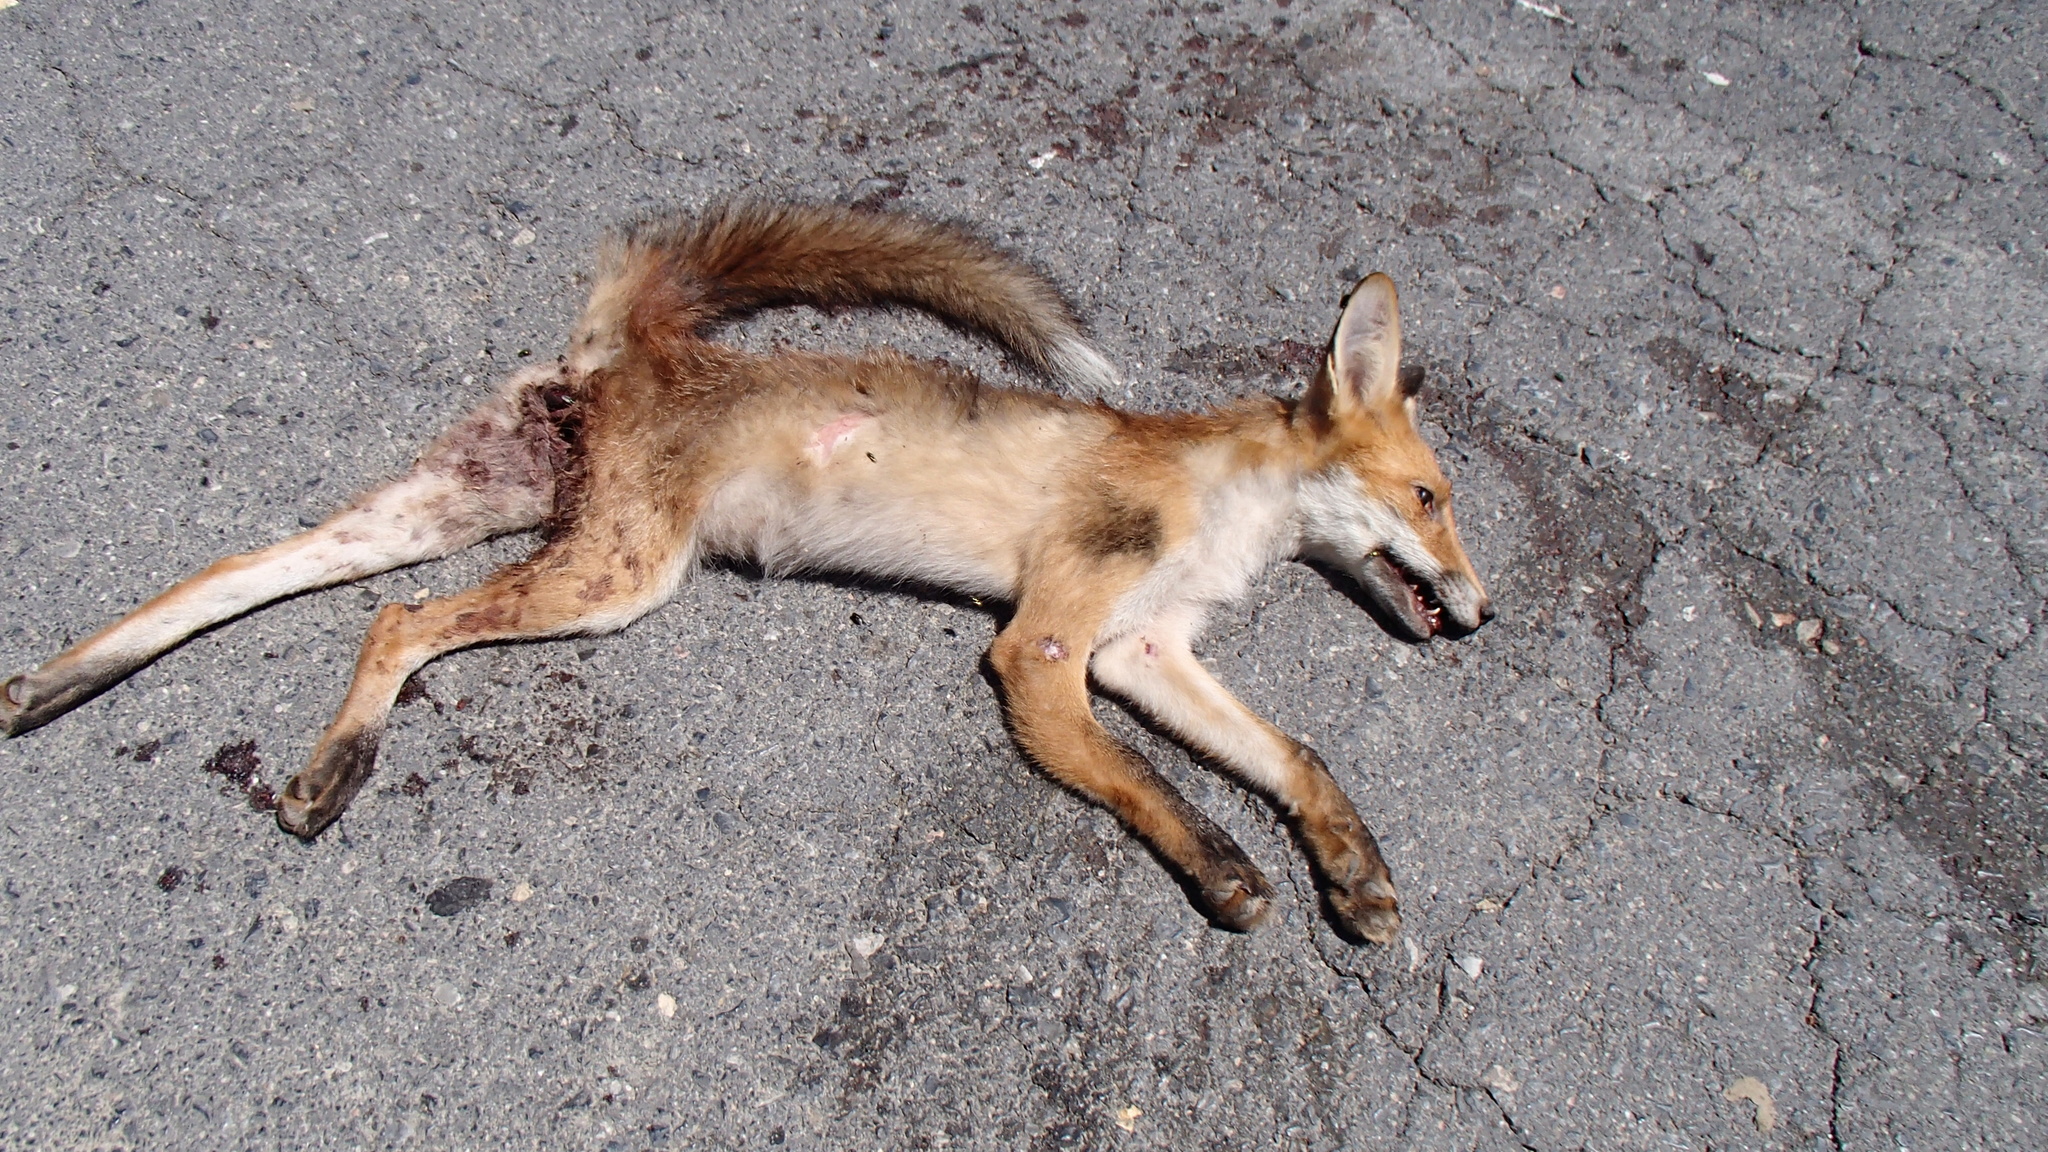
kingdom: Animalia
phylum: Chordata
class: Mammalia
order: Carnivora
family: Canidae
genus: Vulpes
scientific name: Vulpes vulpes
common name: Red fox
